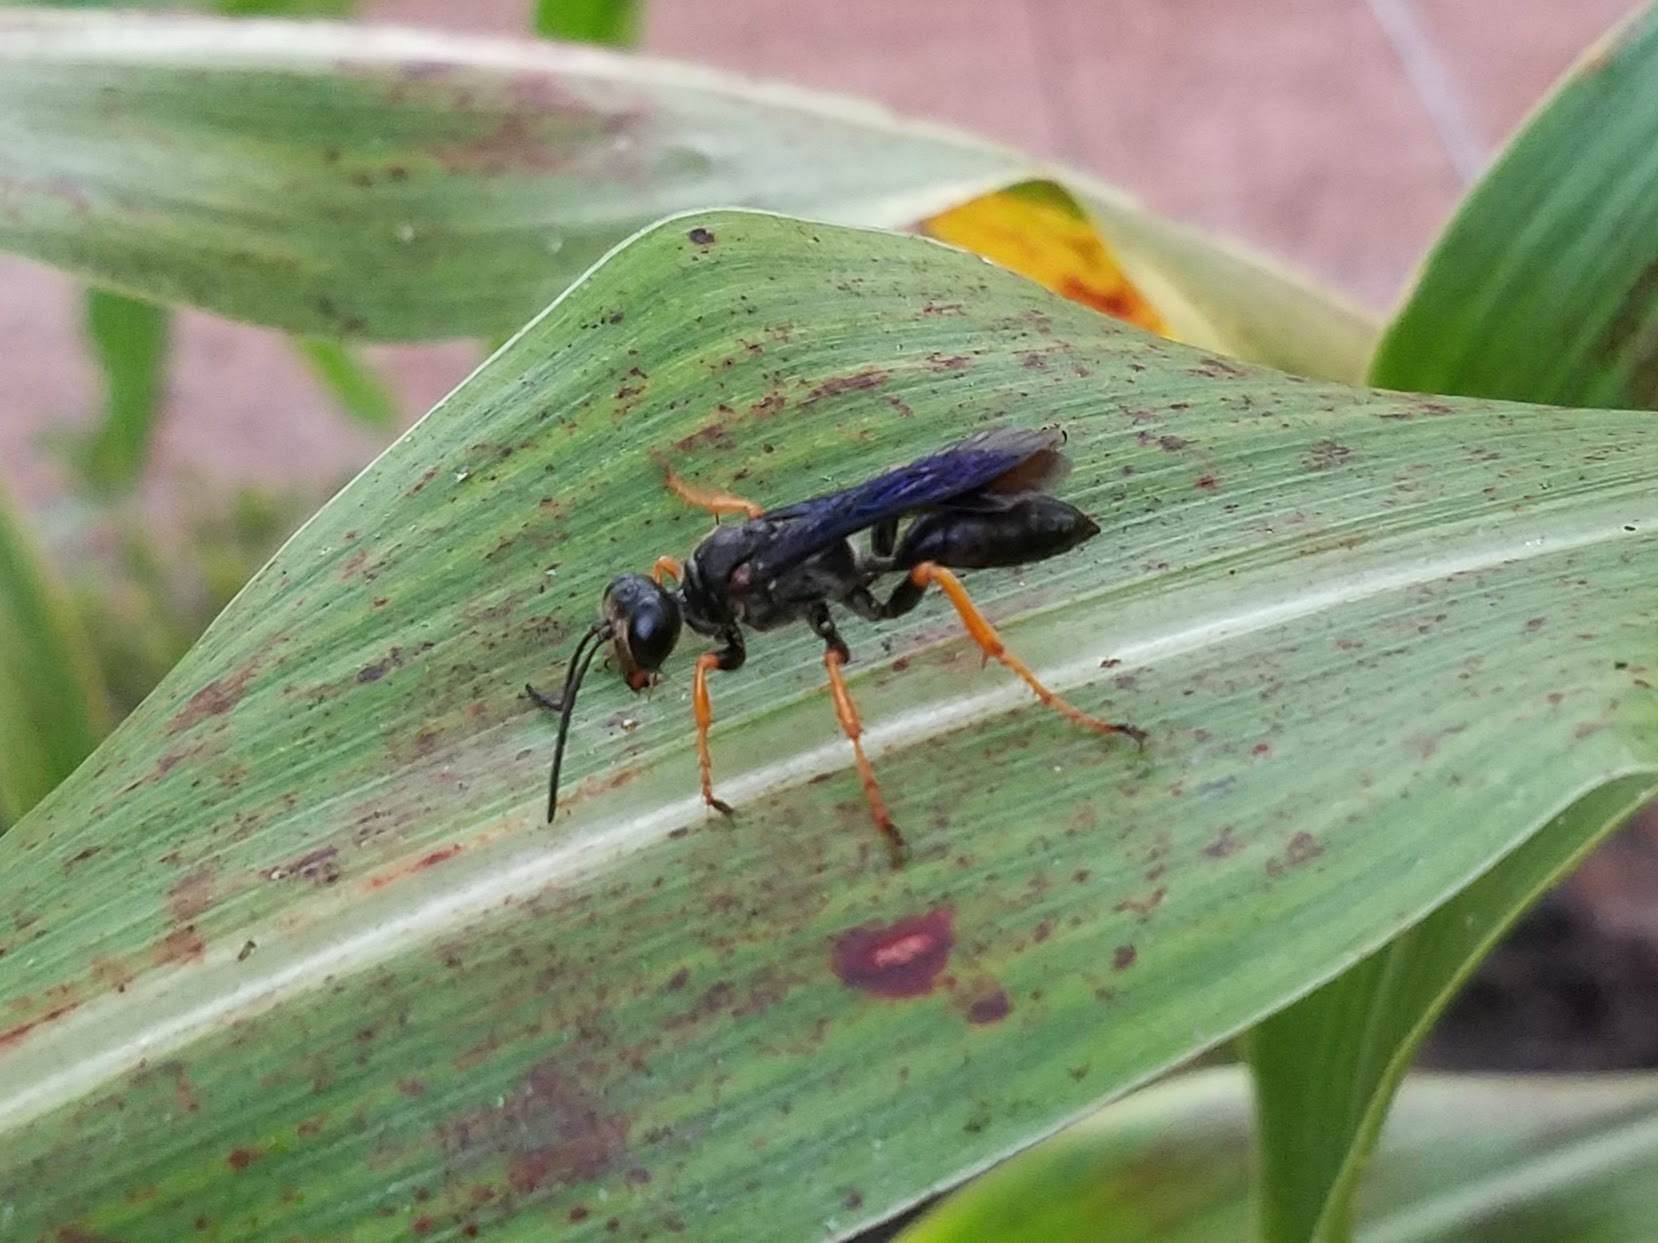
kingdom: Animalia
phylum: Arthropoda
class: Insecta
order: Hymenoptera
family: Sphecidae
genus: Sphex
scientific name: Sphex nudus
